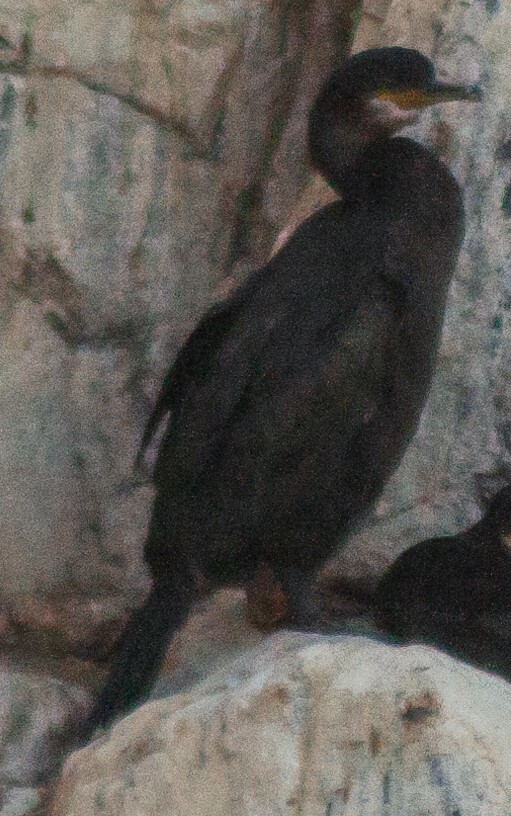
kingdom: Animalia
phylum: Chordata
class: Aves
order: Suliformes
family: Phalacrocoracidae
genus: Phalacrocorax
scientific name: Phalacrocorax aristotelis
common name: European shag
